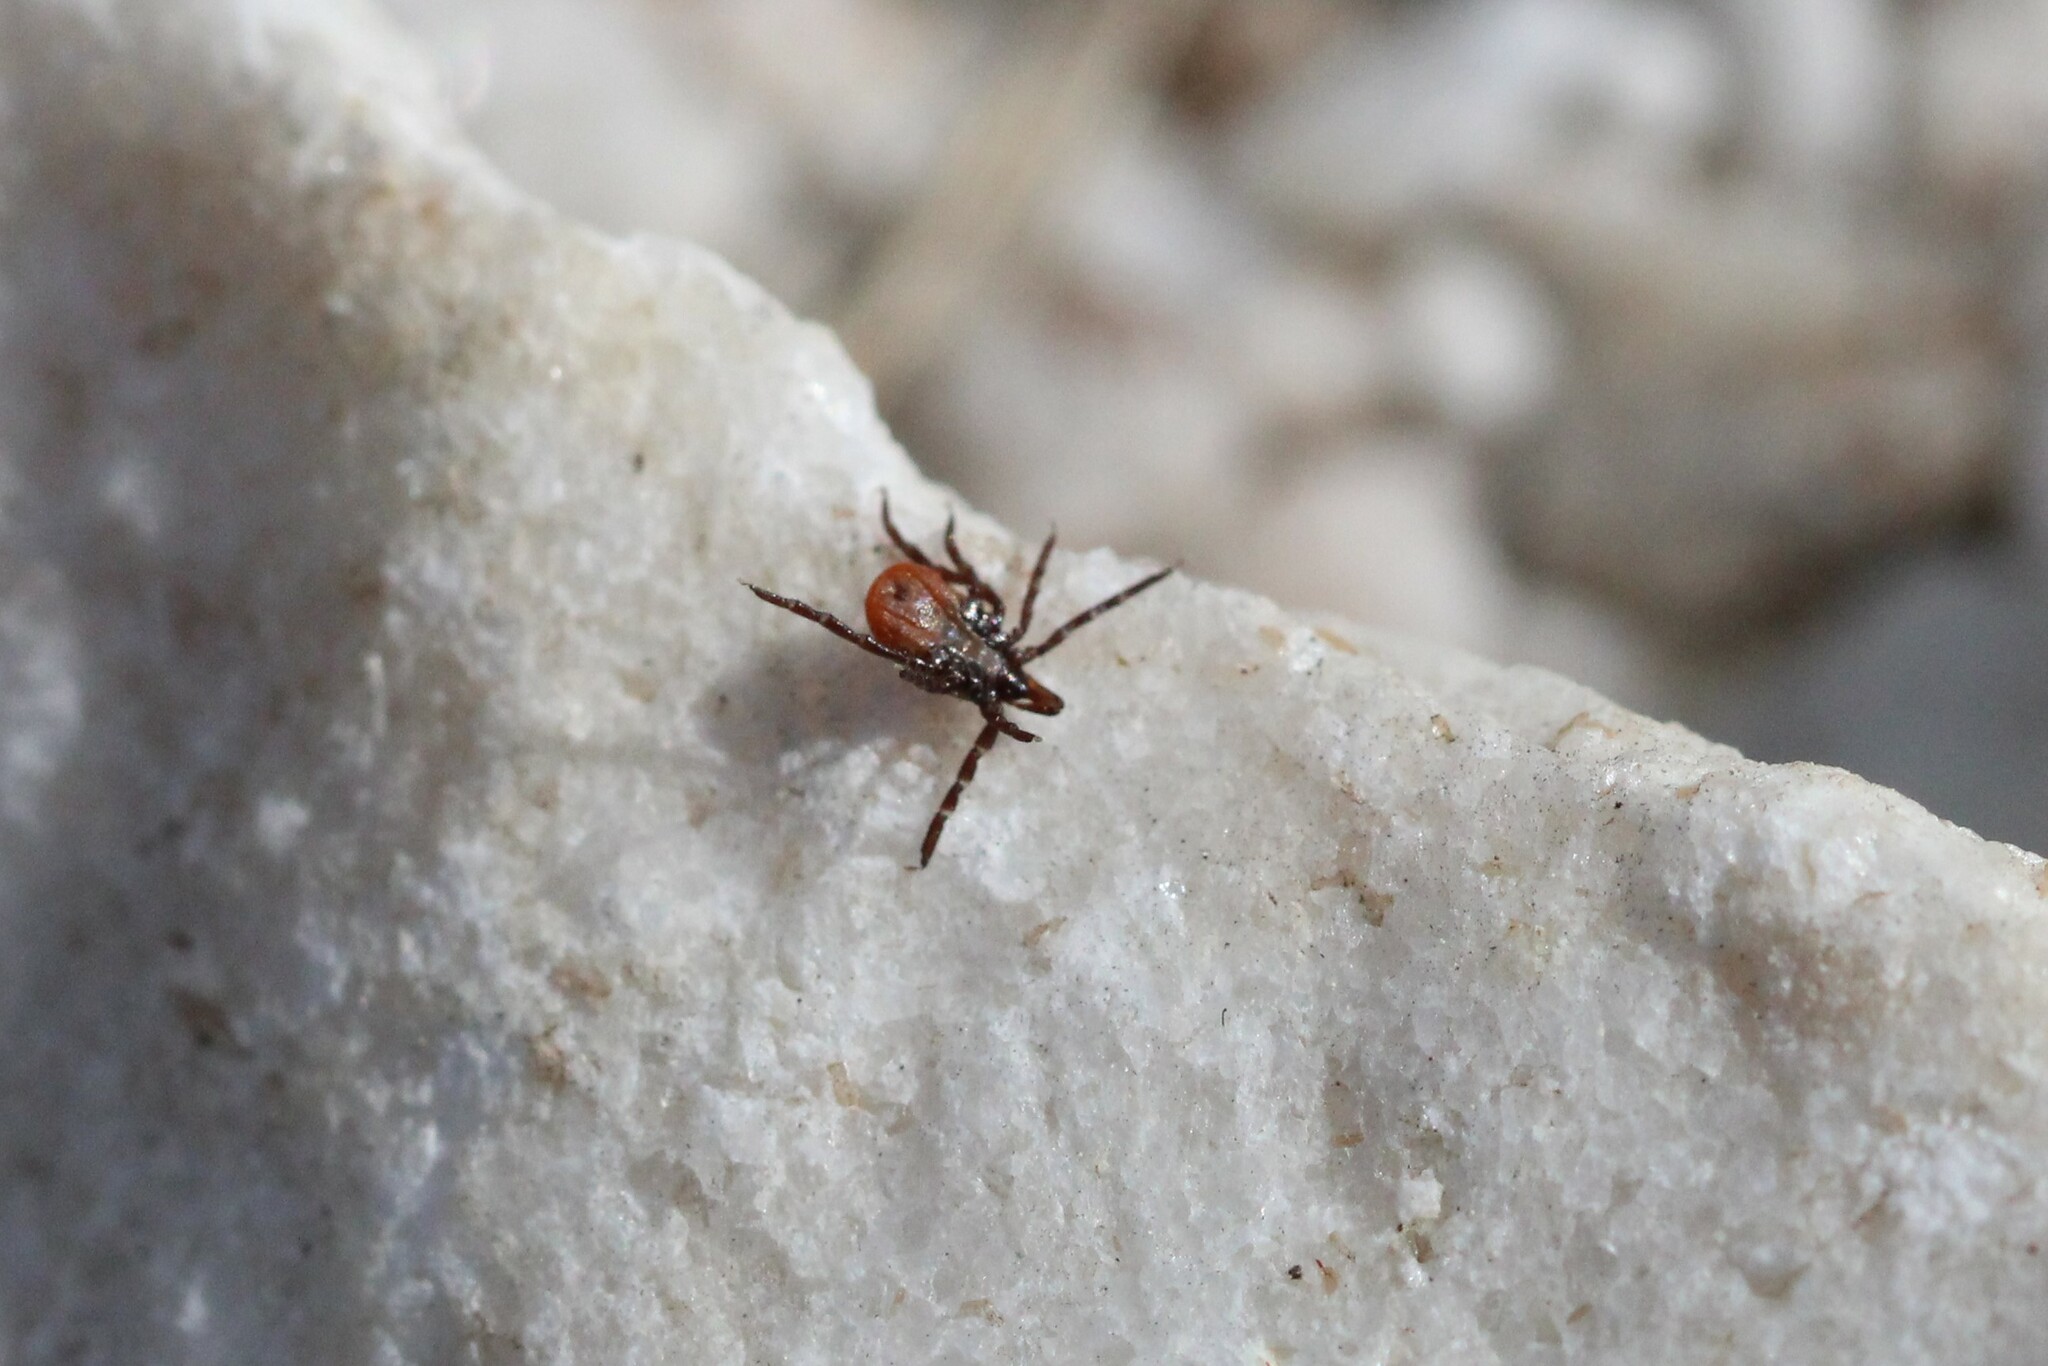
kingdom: Animalia
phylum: Arthropoda
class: Arachnida
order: Ixodida
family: Ixodidae
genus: Ixodes
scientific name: Ixodes scapularis
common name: Black legged tick
